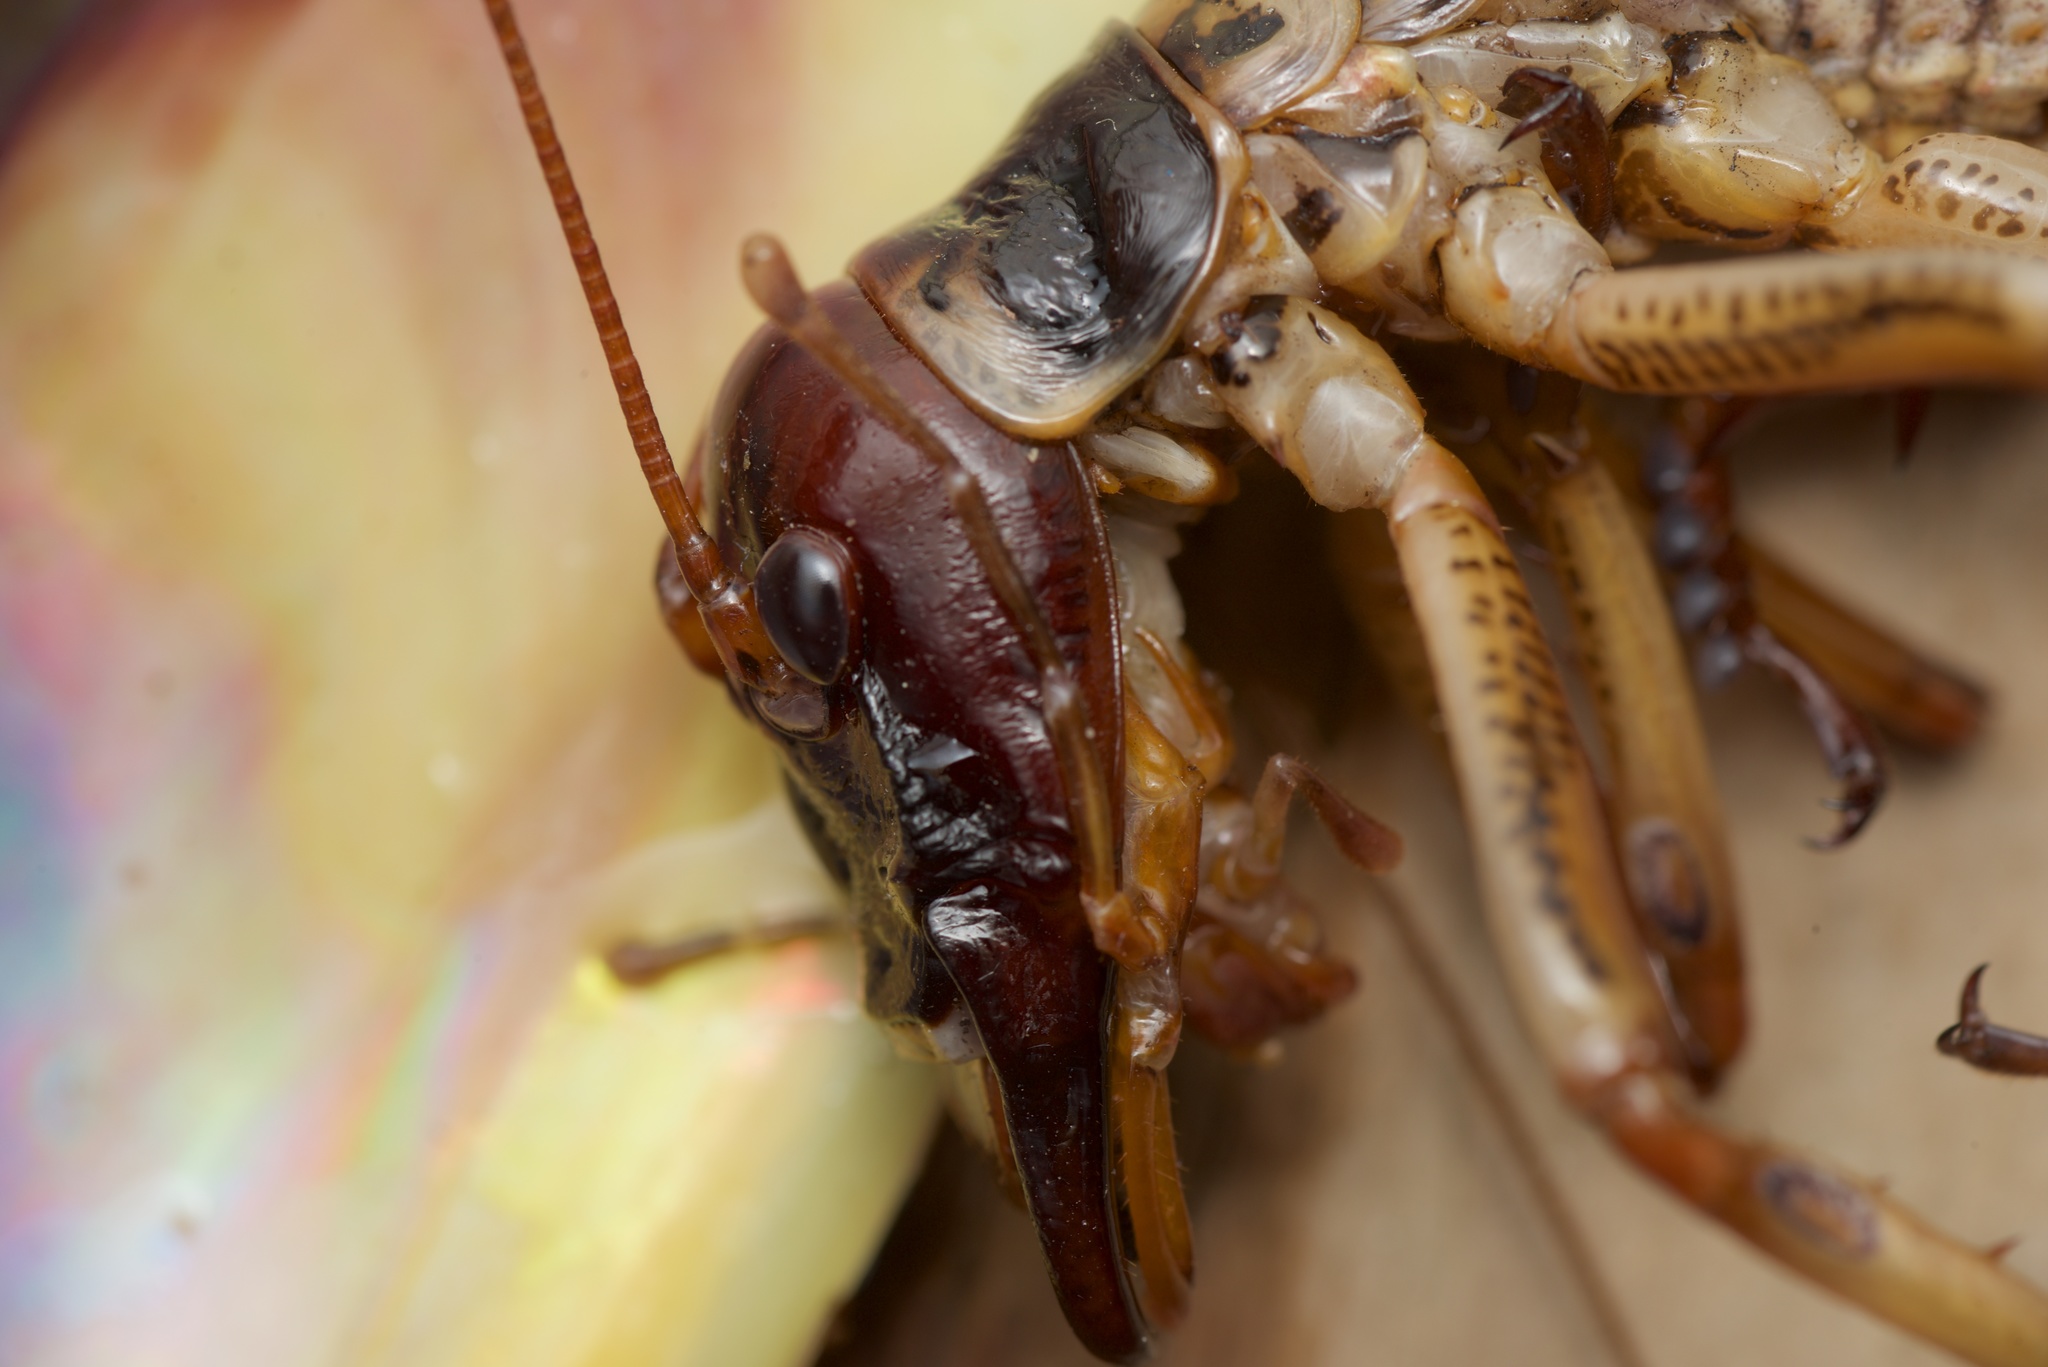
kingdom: Animalia
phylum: Arthropoda
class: Insecta
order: Orthoptera
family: Anostostomatidae
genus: Hemideina
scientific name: Hemideina crassidens
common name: Wellington tree weta
